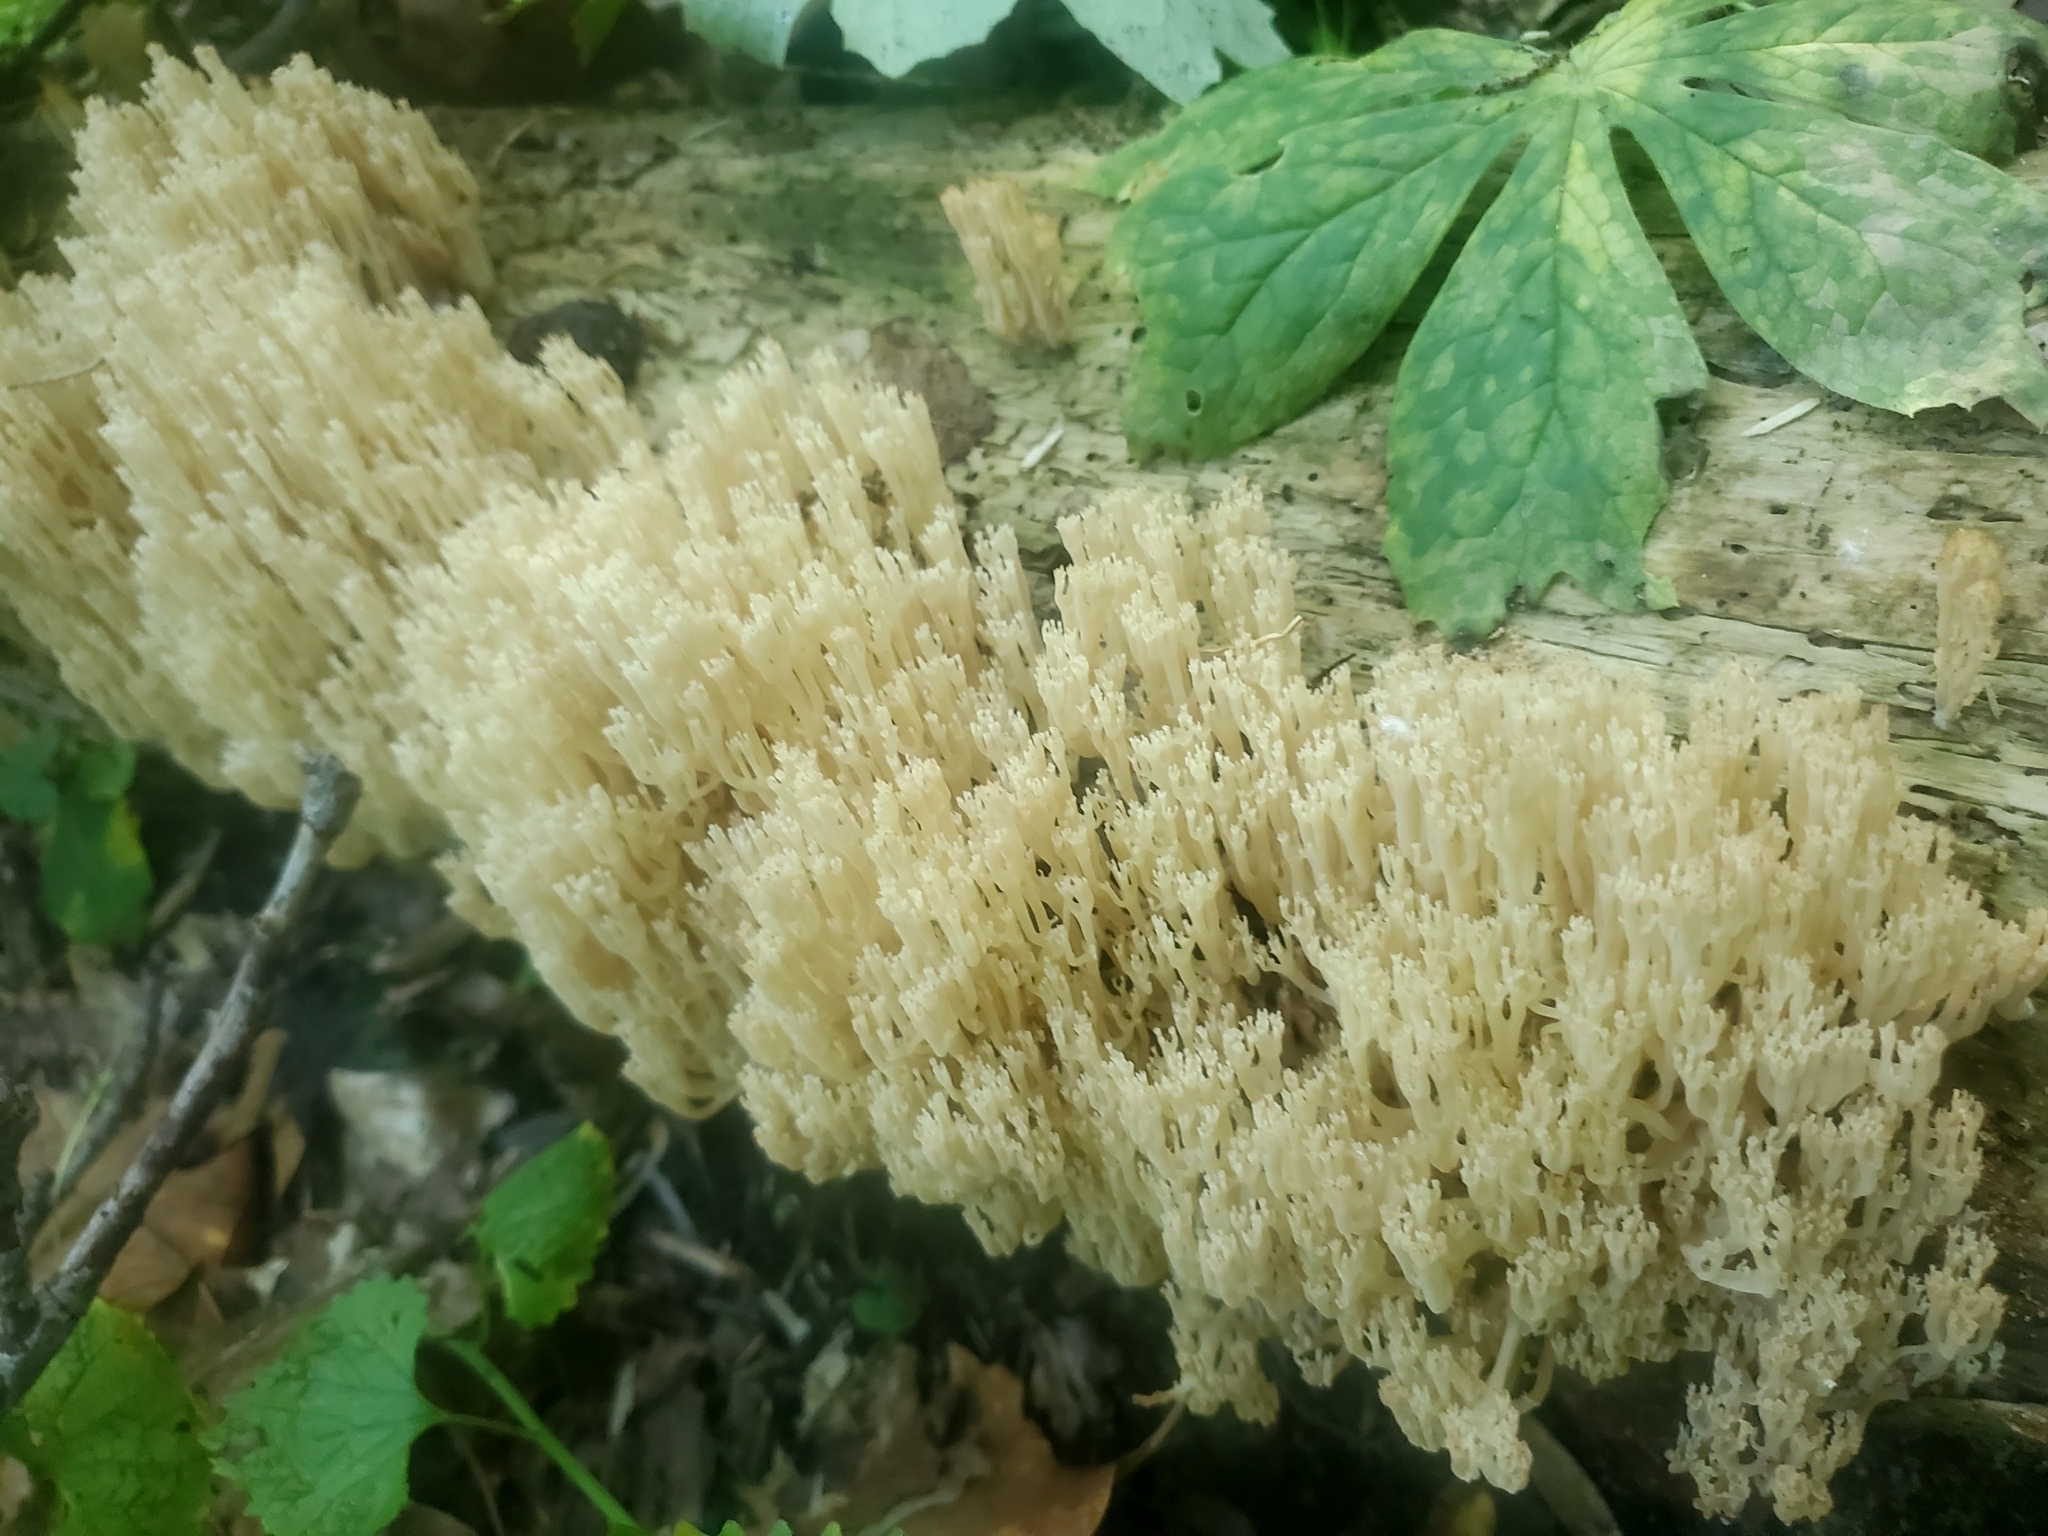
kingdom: Fungi
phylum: Basidiomycota
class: Agaricomycetes
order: Russulales
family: Auriscalpiaceae
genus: Artomyces
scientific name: Artomyces pyxidatus
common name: Crown-tipped coral fungus
